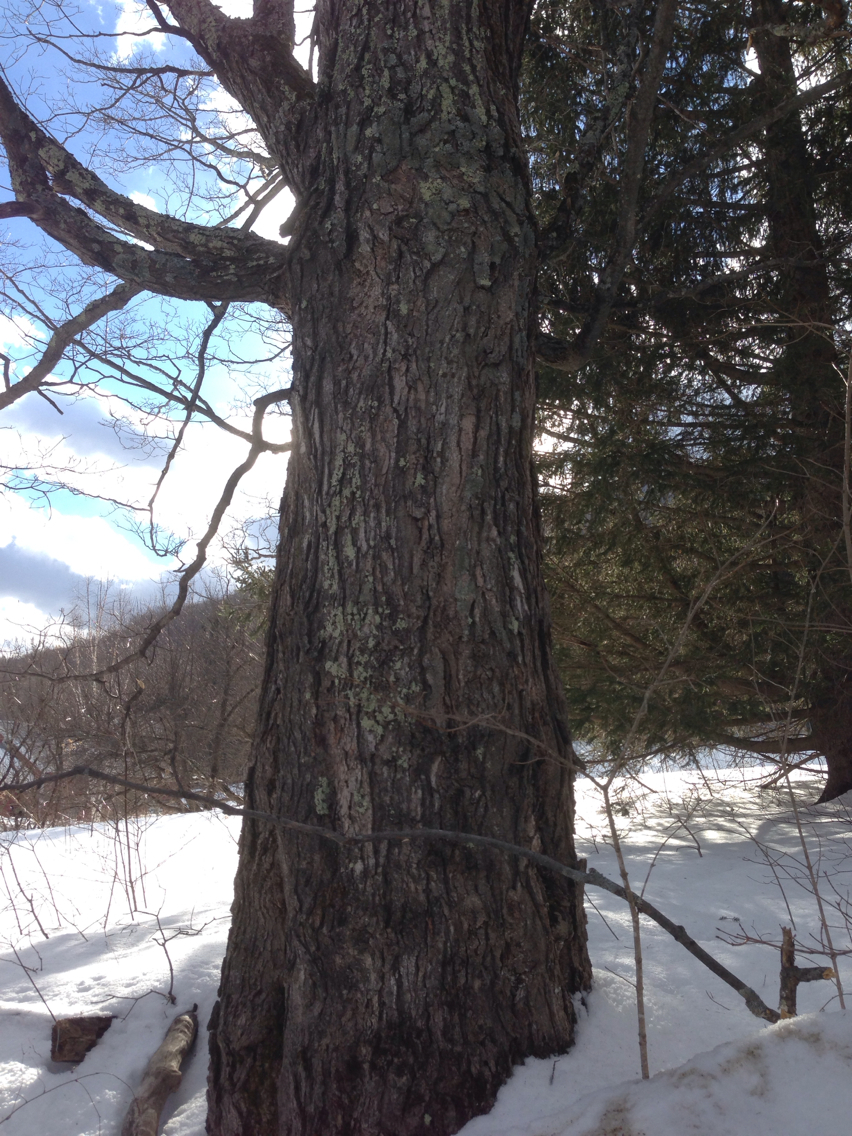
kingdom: Plantae
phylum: Tracheophyta
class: Magnoliopsida
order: Sapindales
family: Sapindaceae
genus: Acer
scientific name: Acer saccharum
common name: Sugar maple
